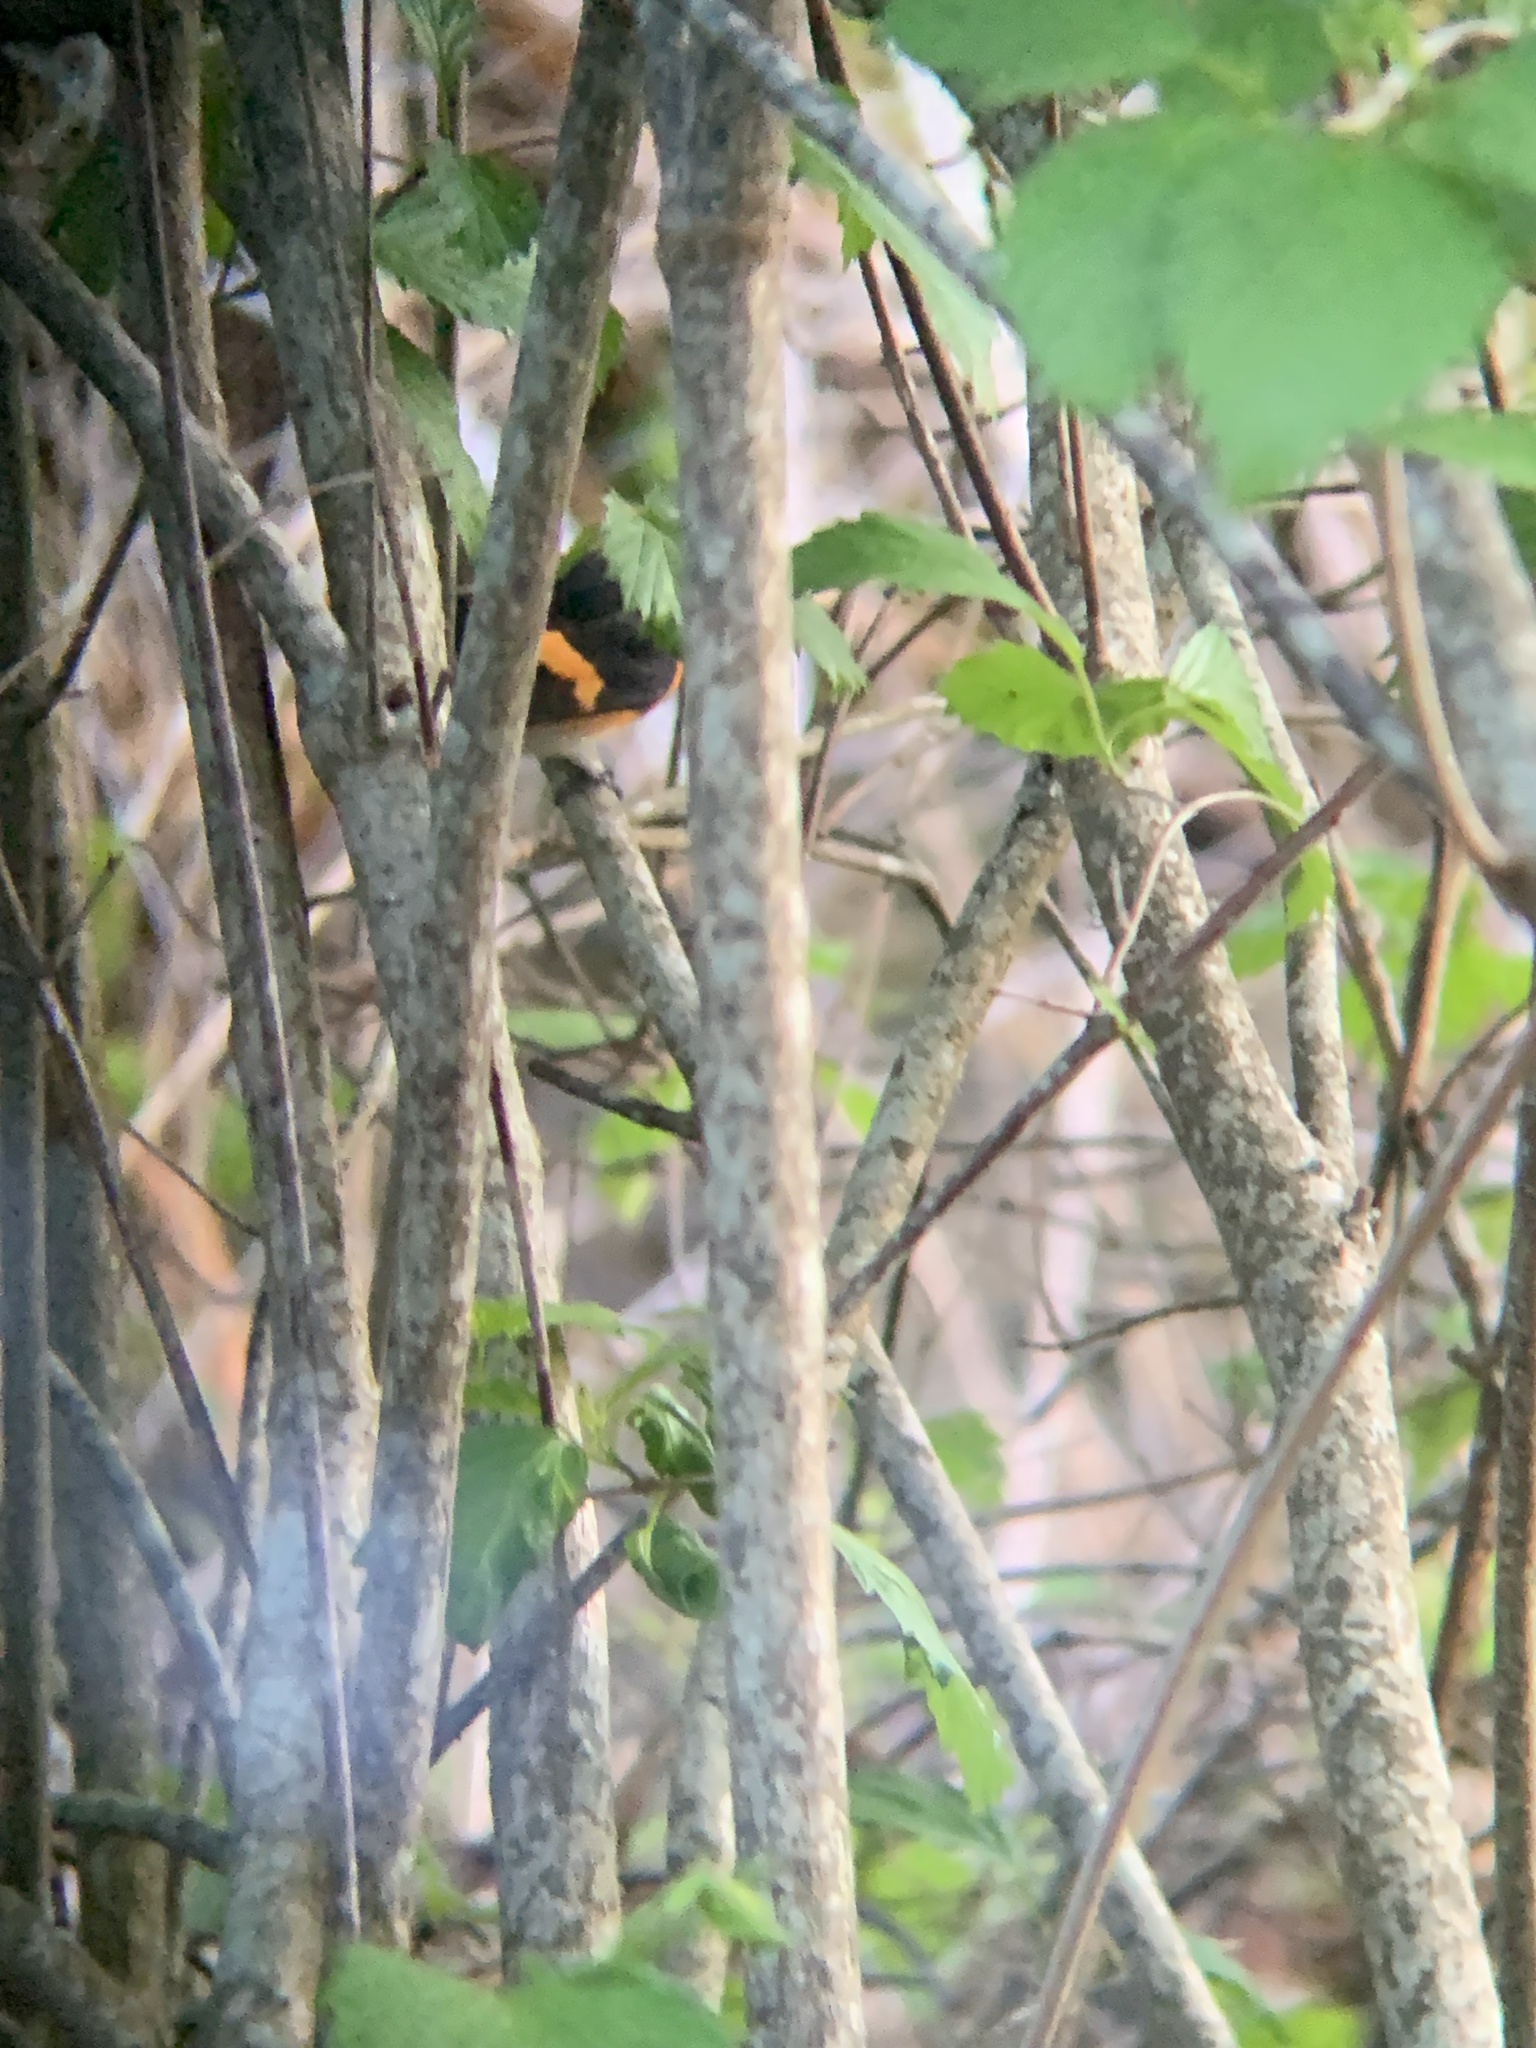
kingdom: Animalia
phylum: Chordata
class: Aves
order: Passeriformes
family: Parulidae
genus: Setophaga
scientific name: Setophaga ruticilla
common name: American redstart
